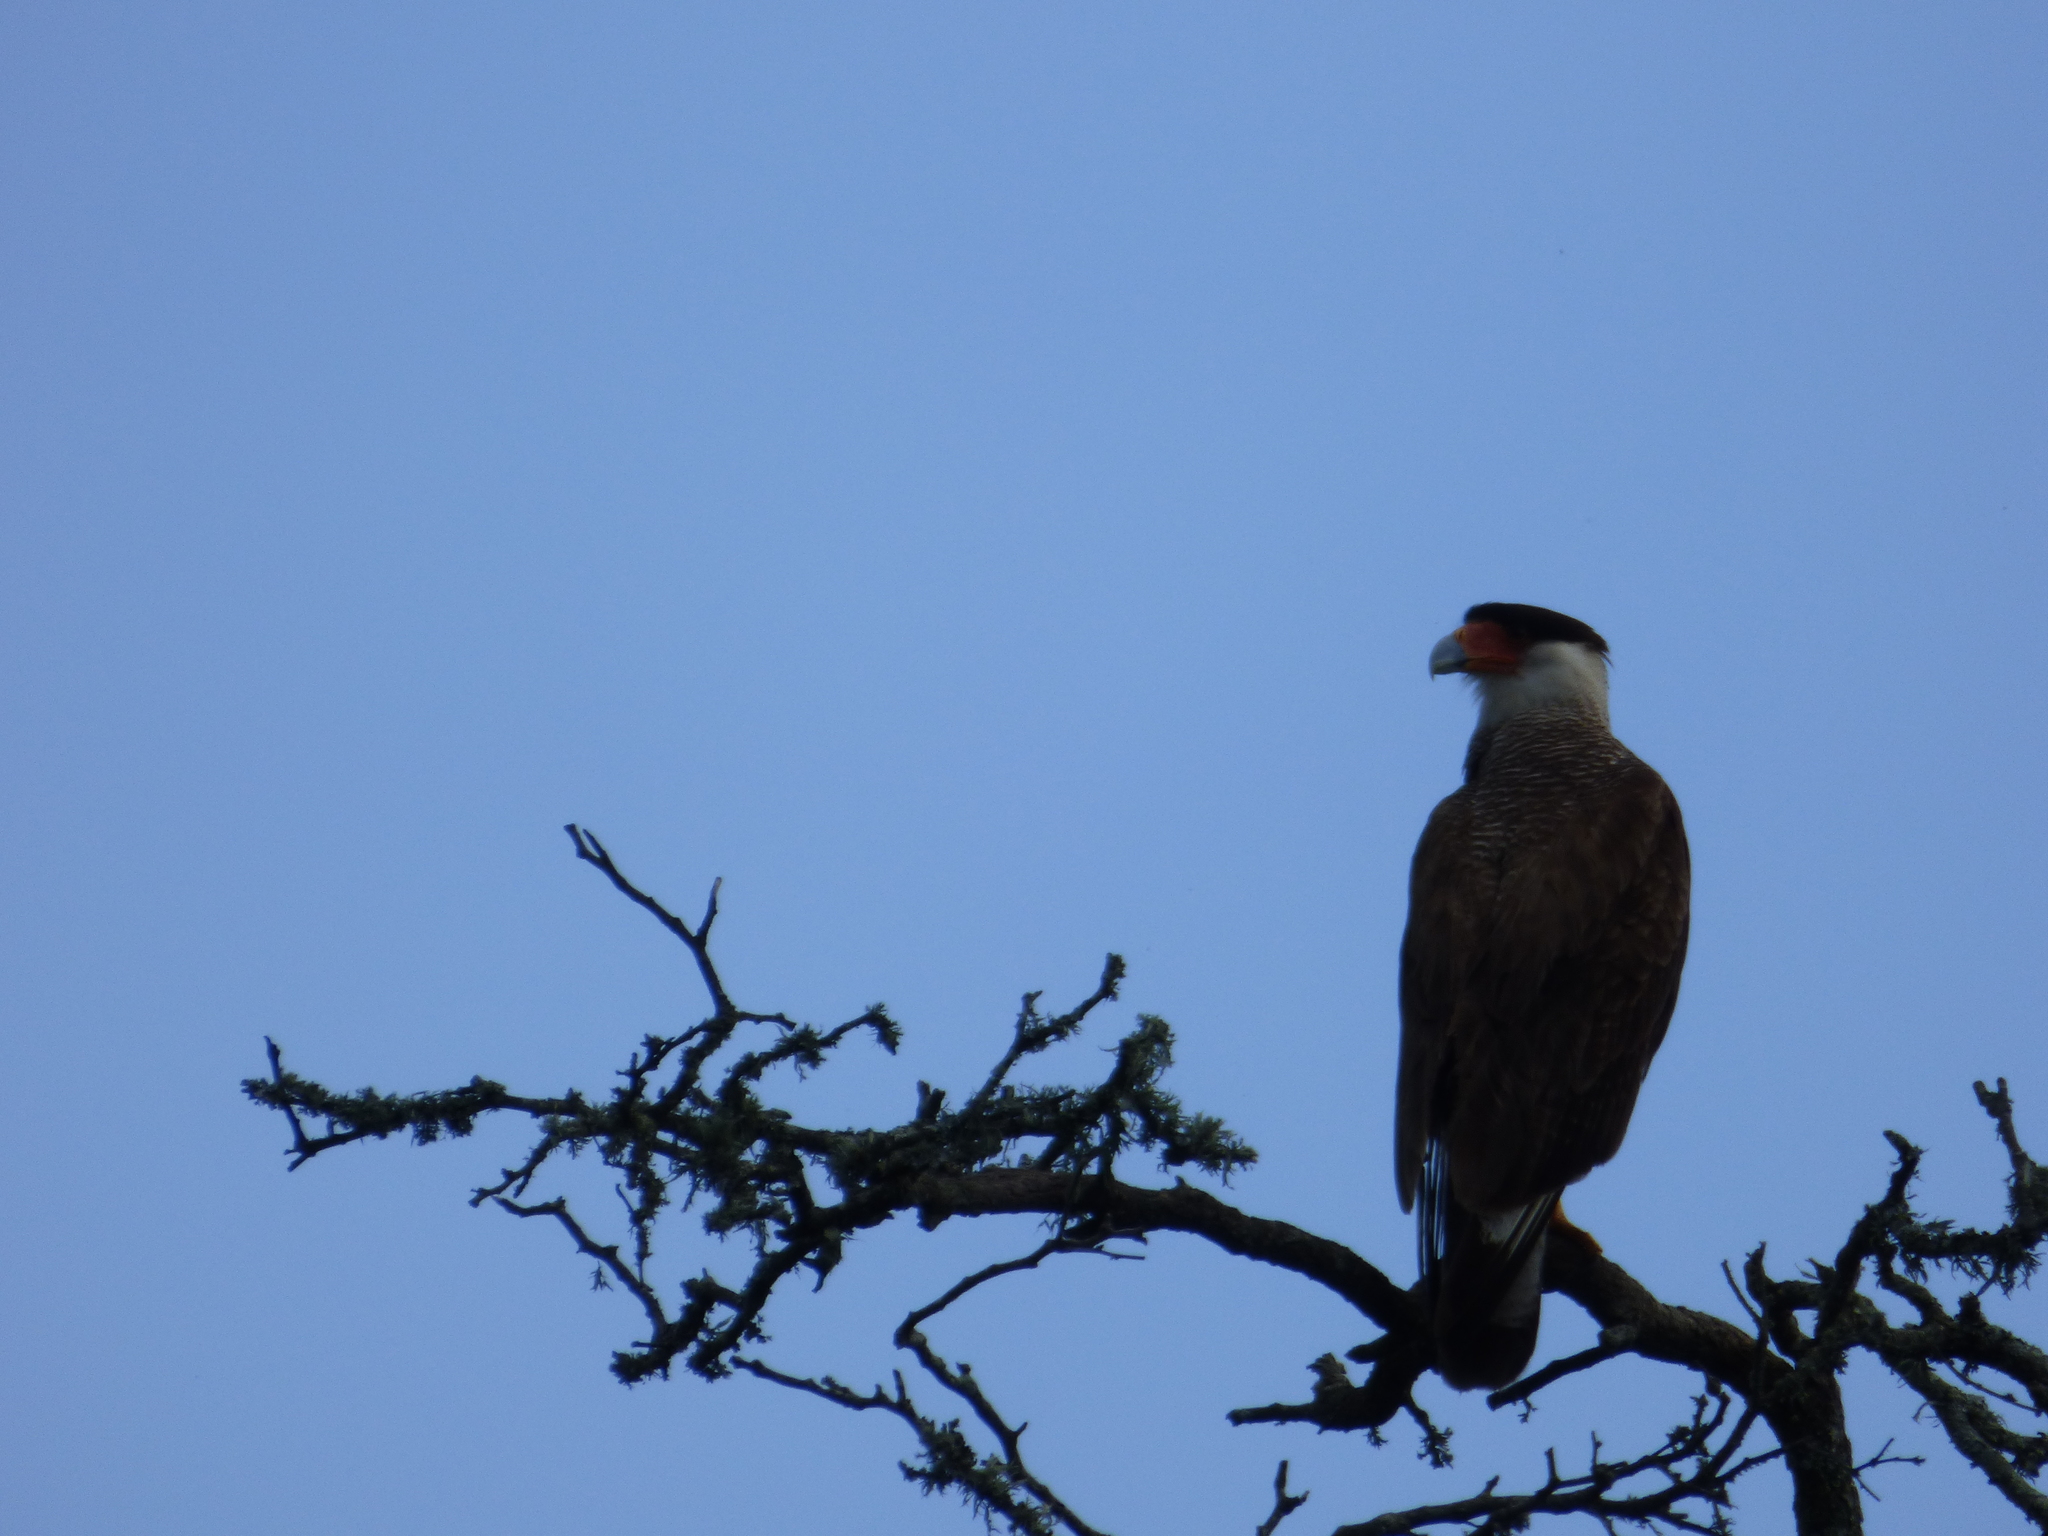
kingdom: Animalia
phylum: Chordata
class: Aves
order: Falconiformes
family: Falconidae
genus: Caracara
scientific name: Caracara plancus
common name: Southern caracara
